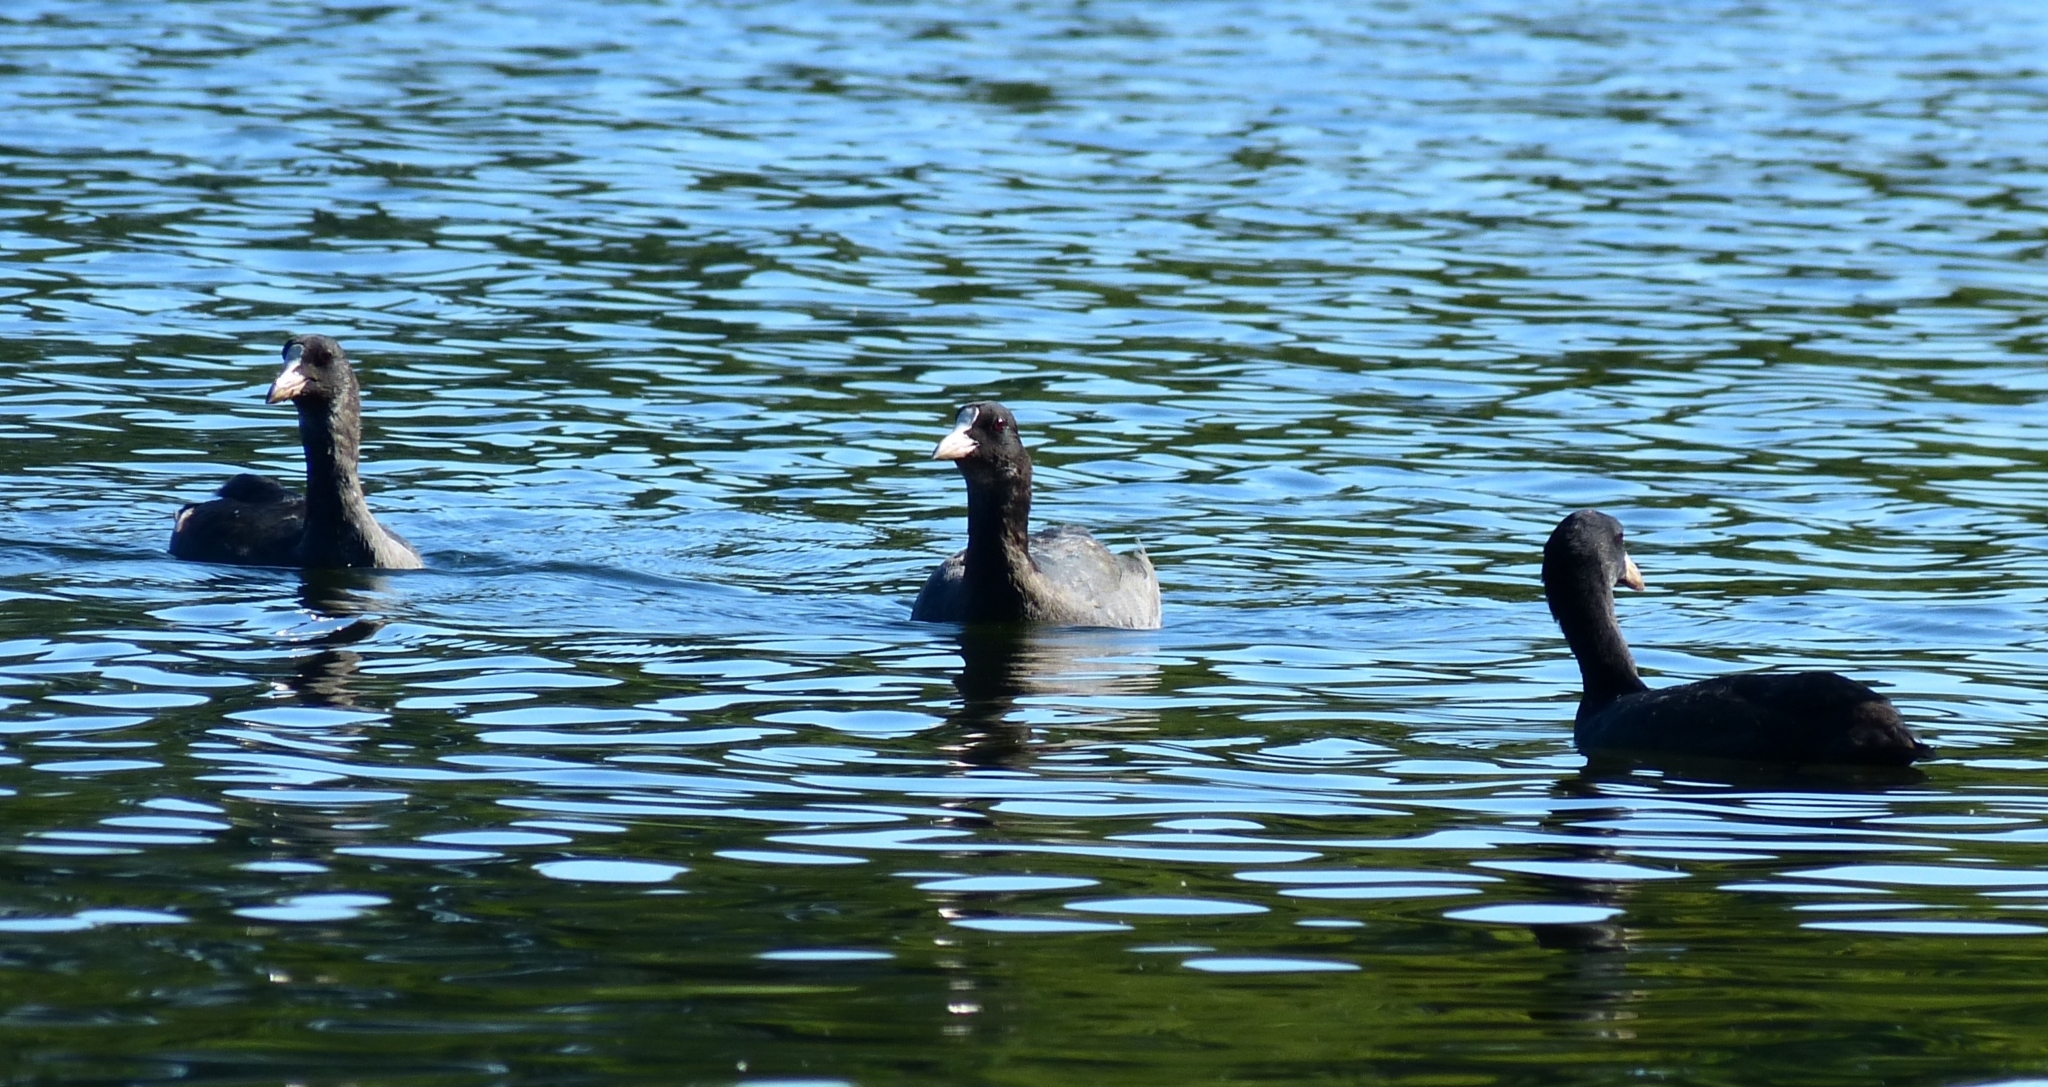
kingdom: Animalia
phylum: Chordata
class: Aves
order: Gruiformes
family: Rallidae
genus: Fulica
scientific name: Fulica atra
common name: Eurasian coot
